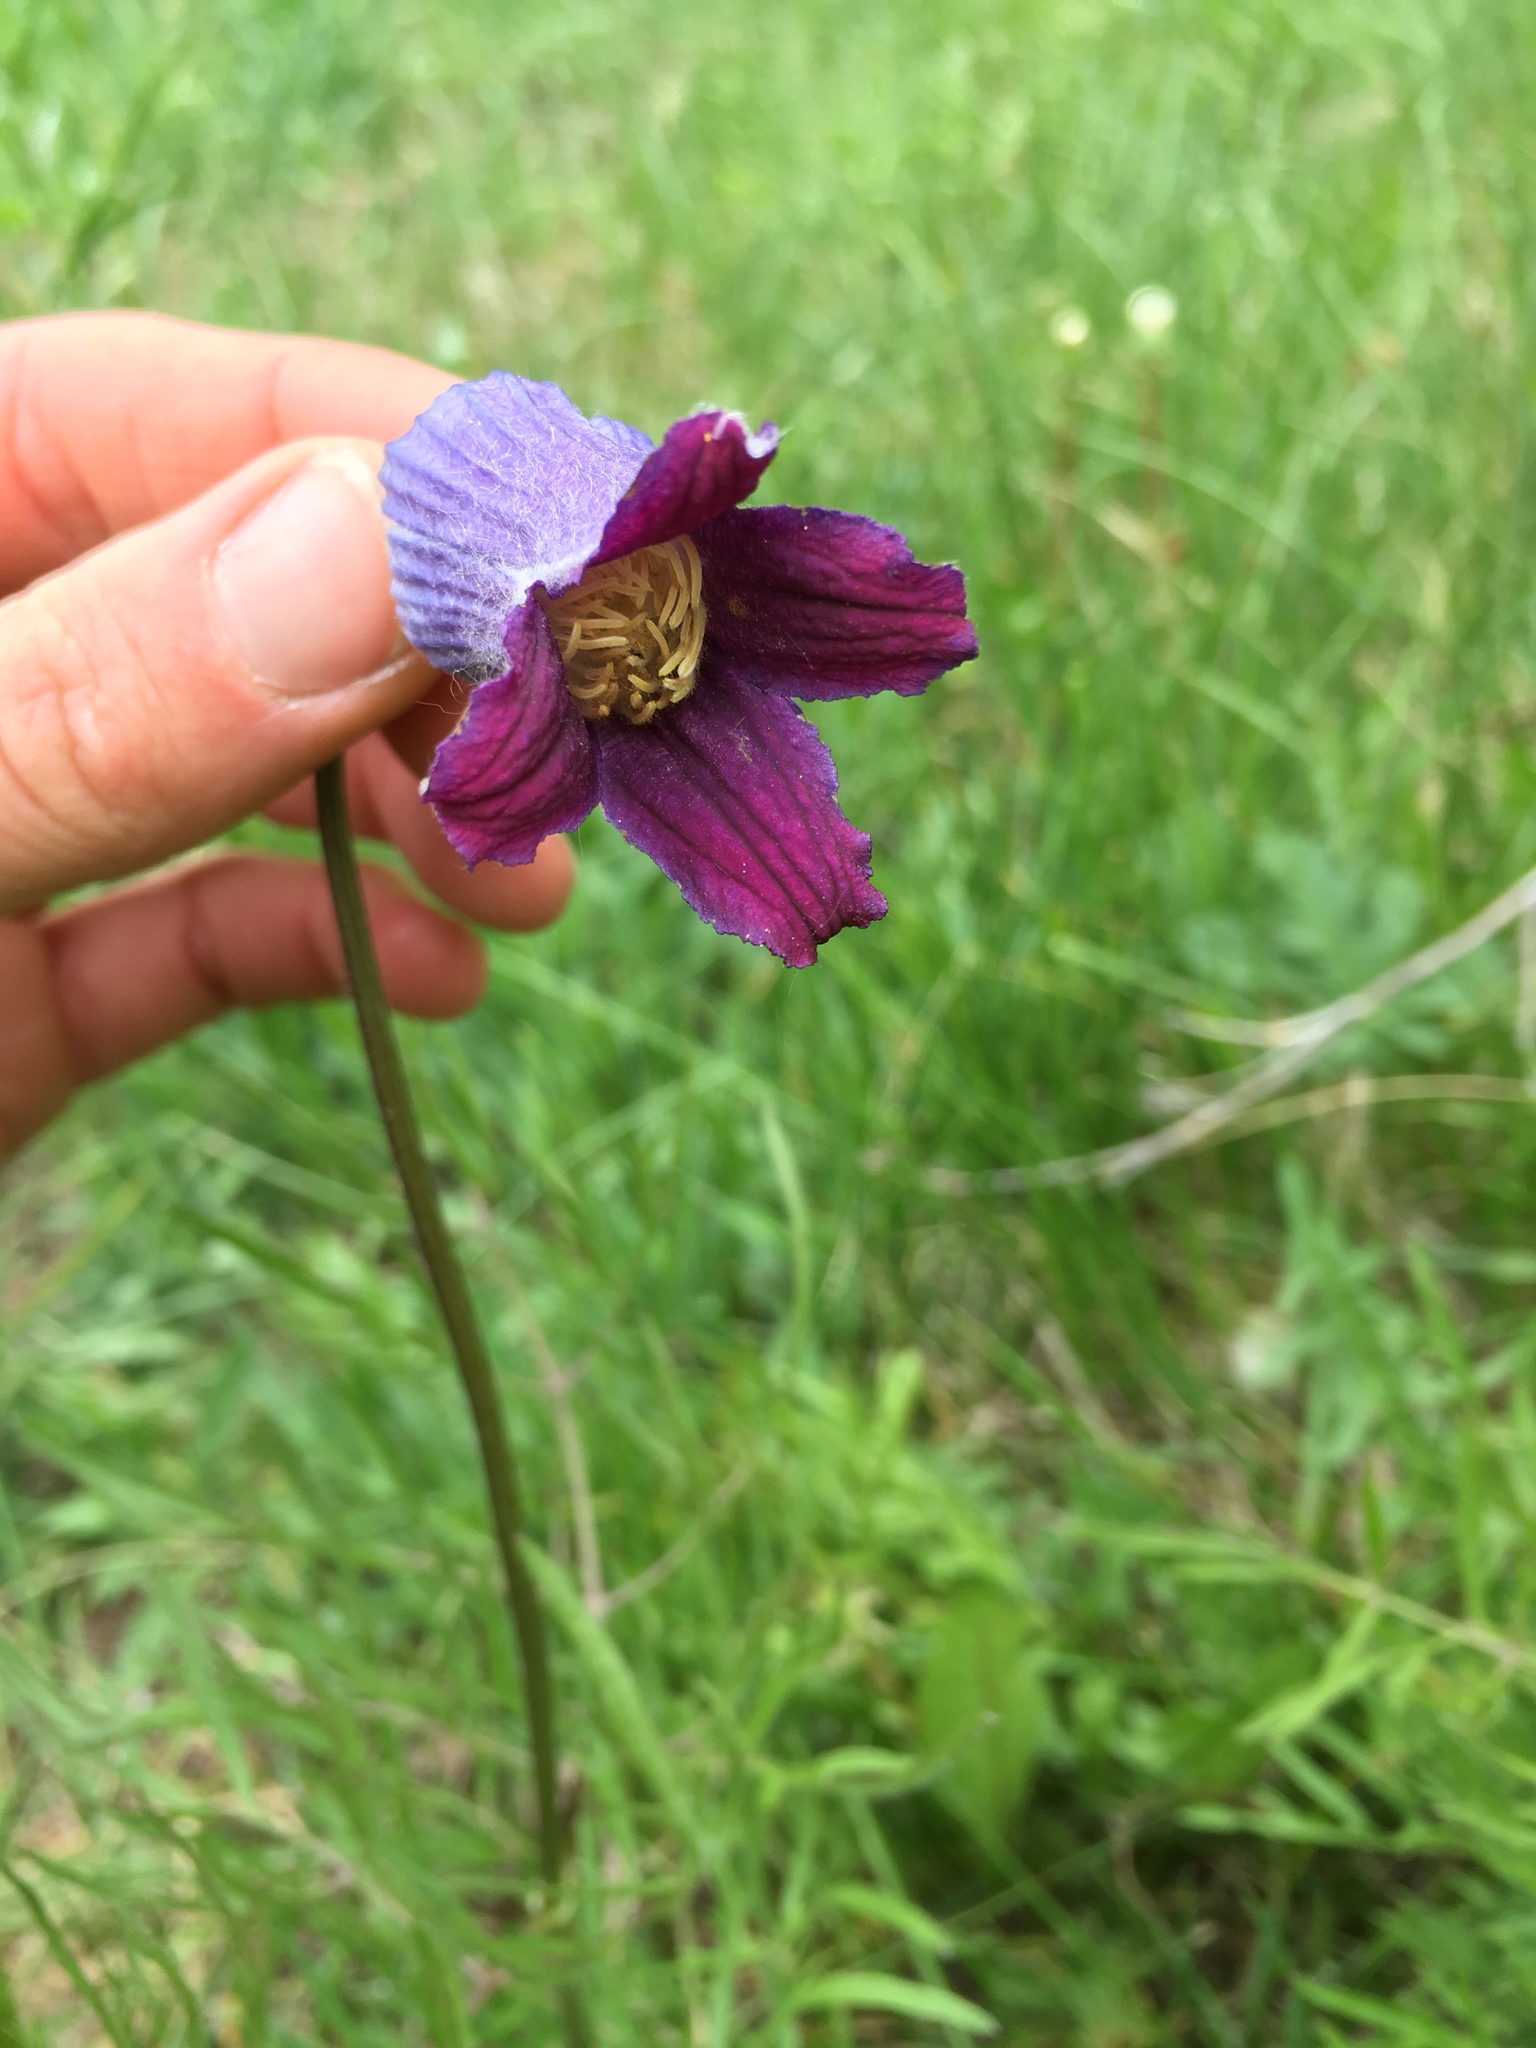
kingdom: Plantae
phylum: Tracheophyta
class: Magnoliopsida
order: Ranunculales
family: Ranunculaceae
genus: Clematis
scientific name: Clematis hirsutissima
